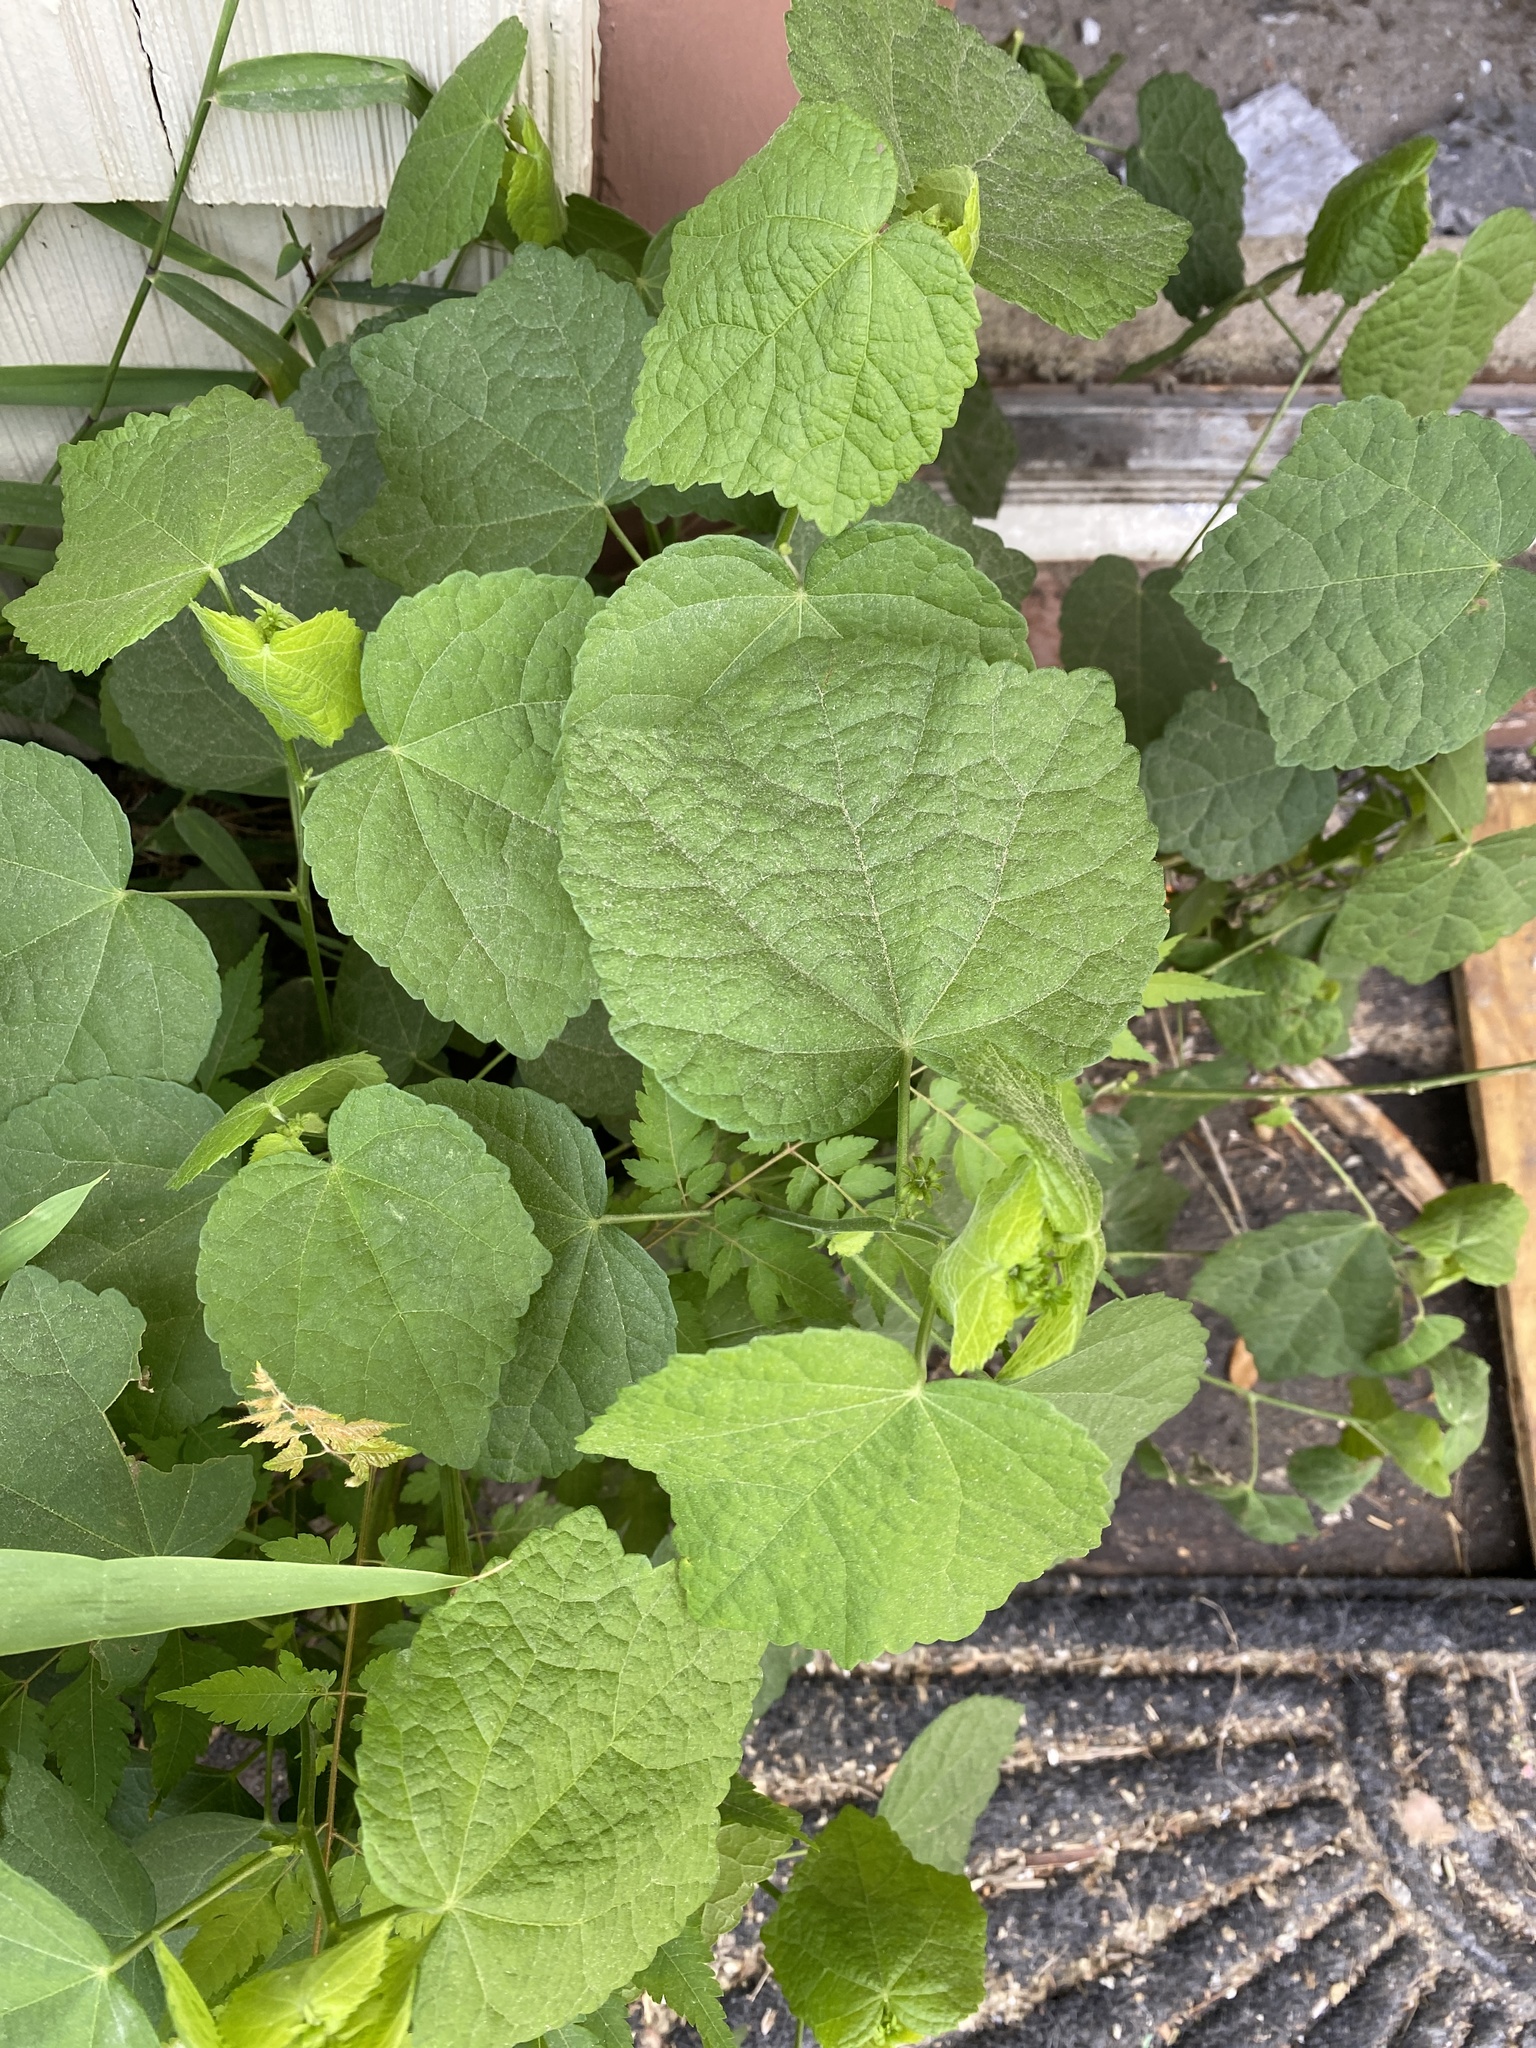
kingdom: Plantae
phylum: Tracheophyta
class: Magnoliopsida
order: Malvales
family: Malvaceae
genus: Malvaviscus
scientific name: Malvaviscus arboreus
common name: Wax mallow
